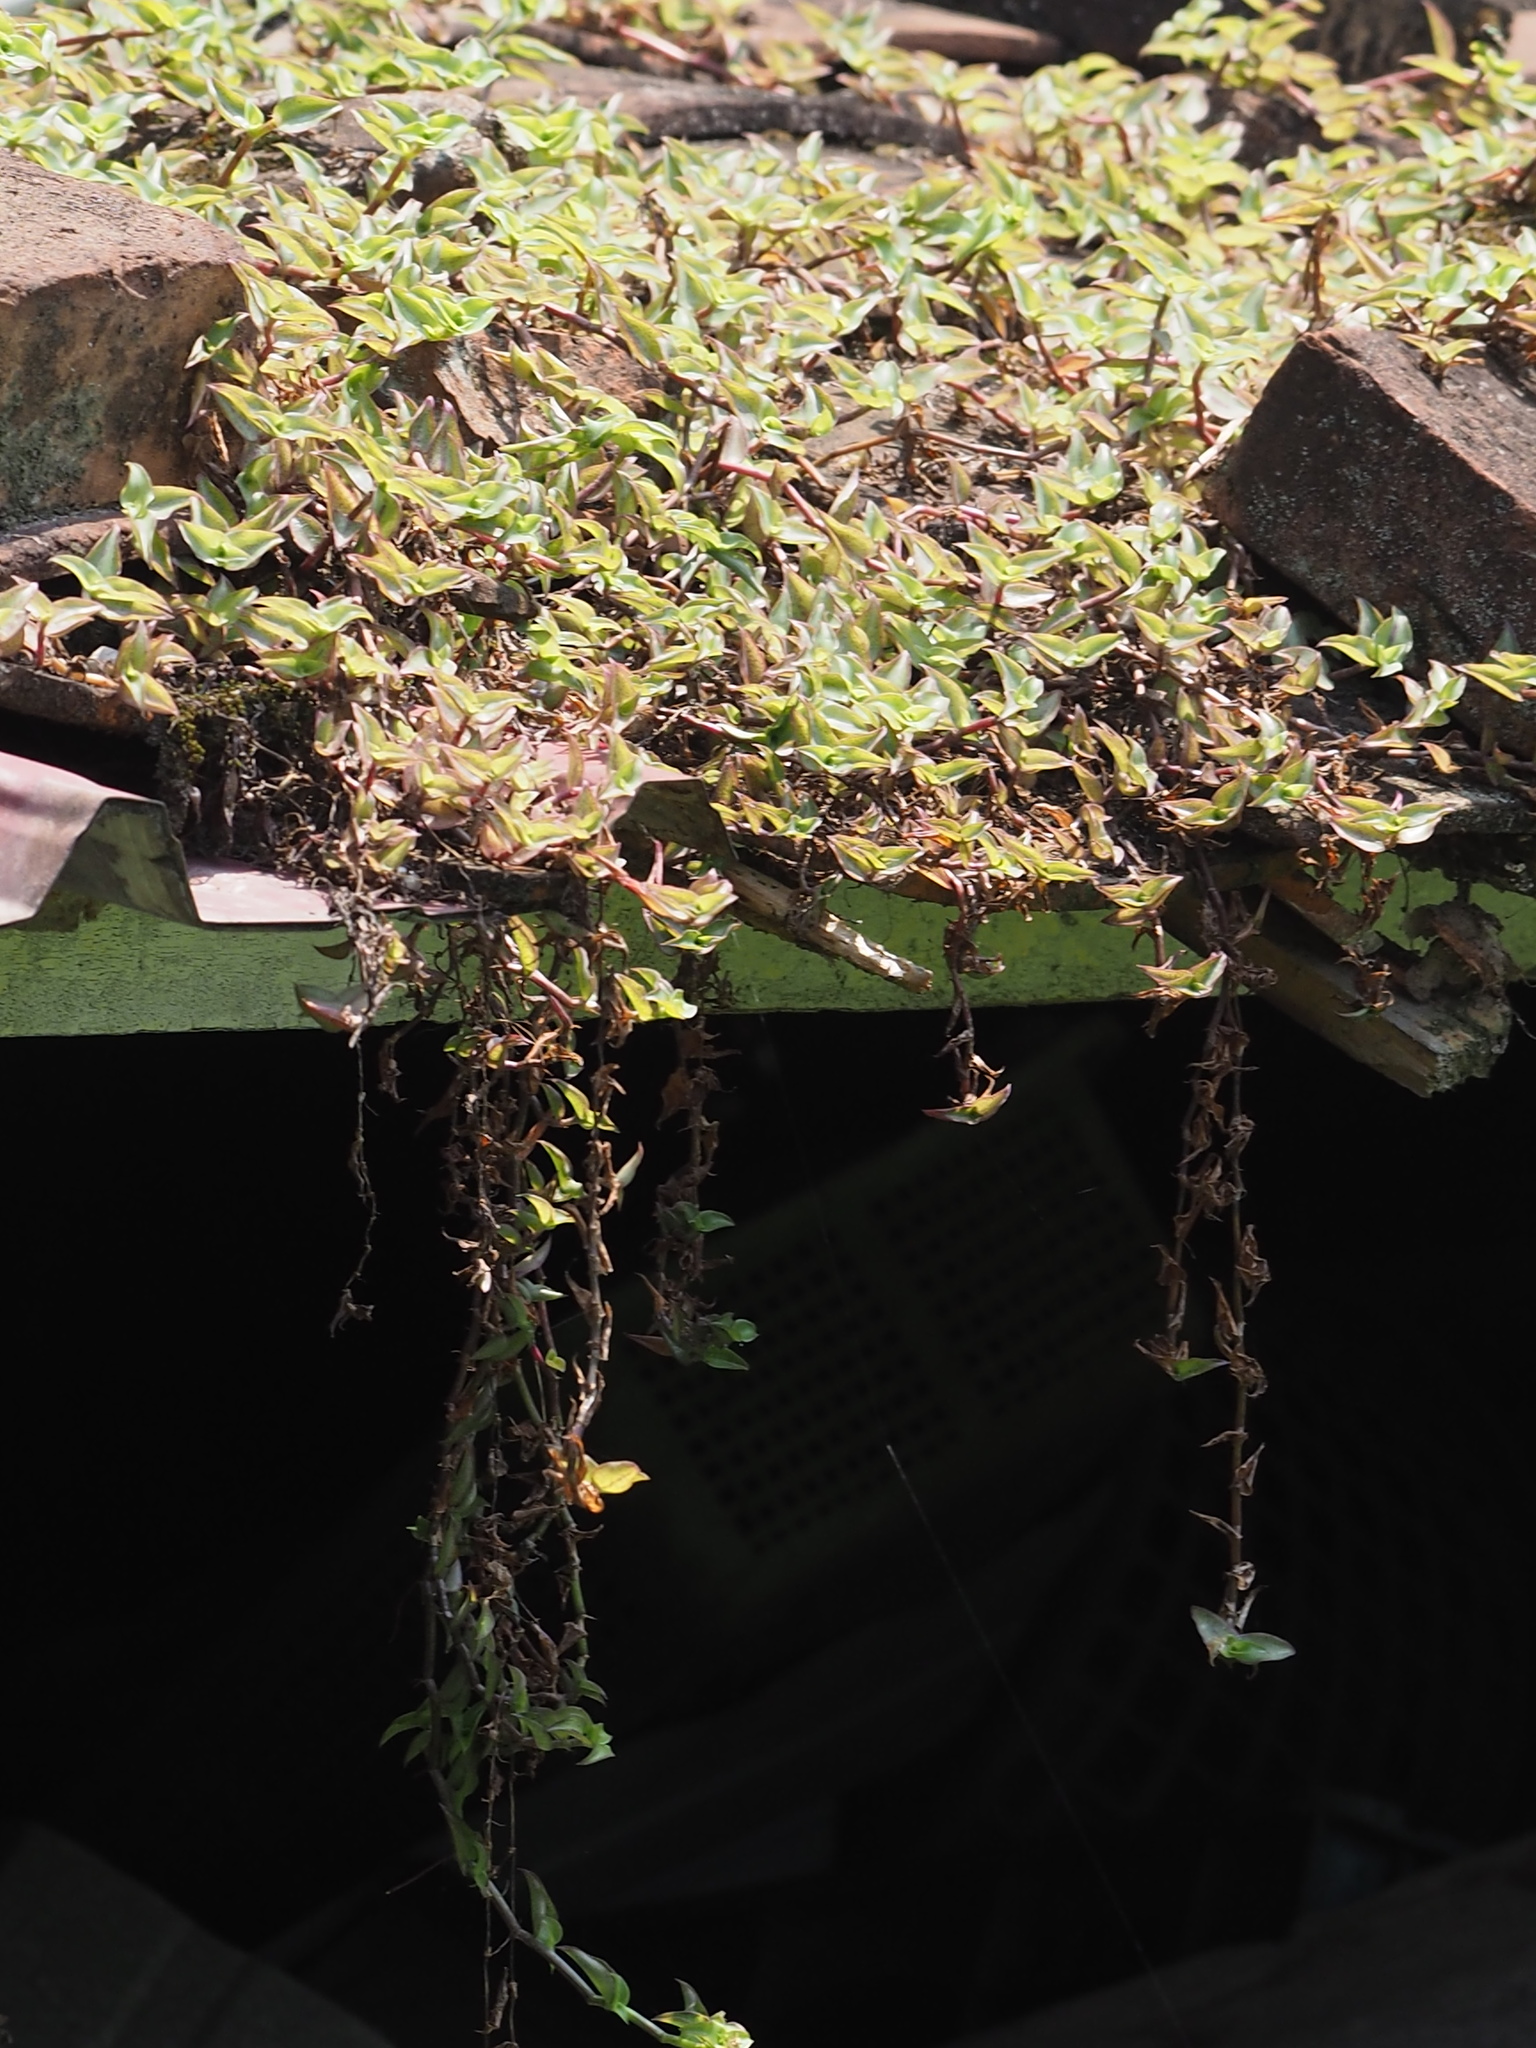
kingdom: Plantae
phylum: Tracheophyta
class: Liliopsida
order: Commelinales
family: Commelinaceae
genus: Callisia
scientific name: Callisia repens
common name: Creeping inchplant
